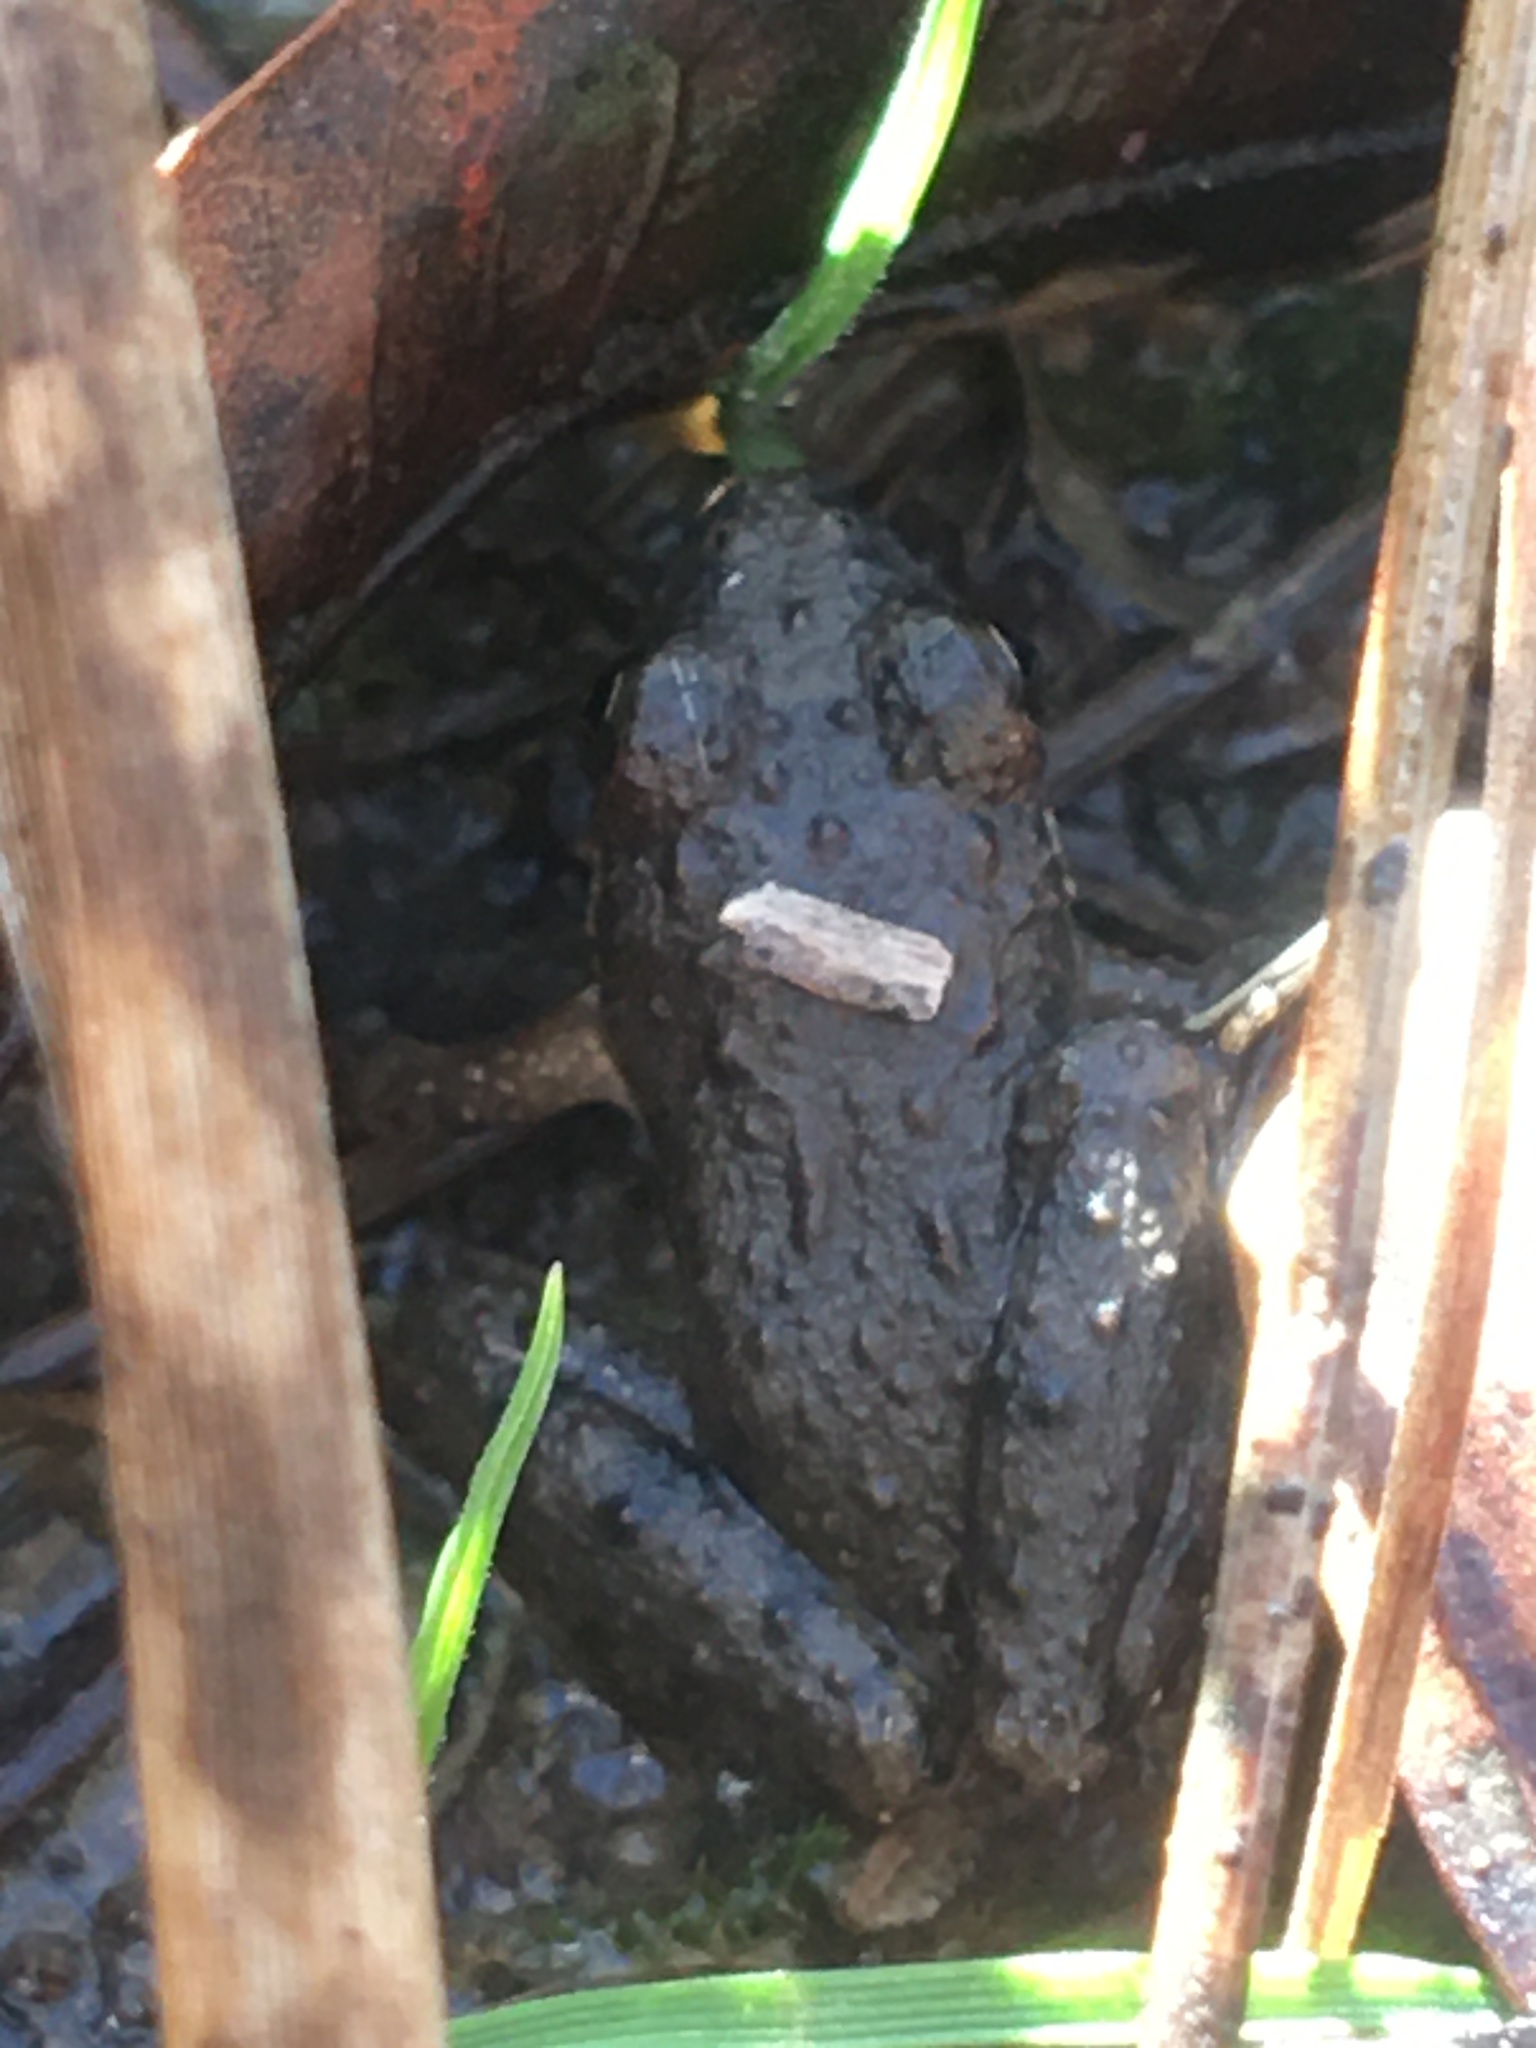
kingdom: Animalia
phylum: Chordata
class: Amphibia
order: Anura
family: Hylidae
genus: Acris
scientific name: Acris blanchardi
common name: Blanchard's cricket frog
